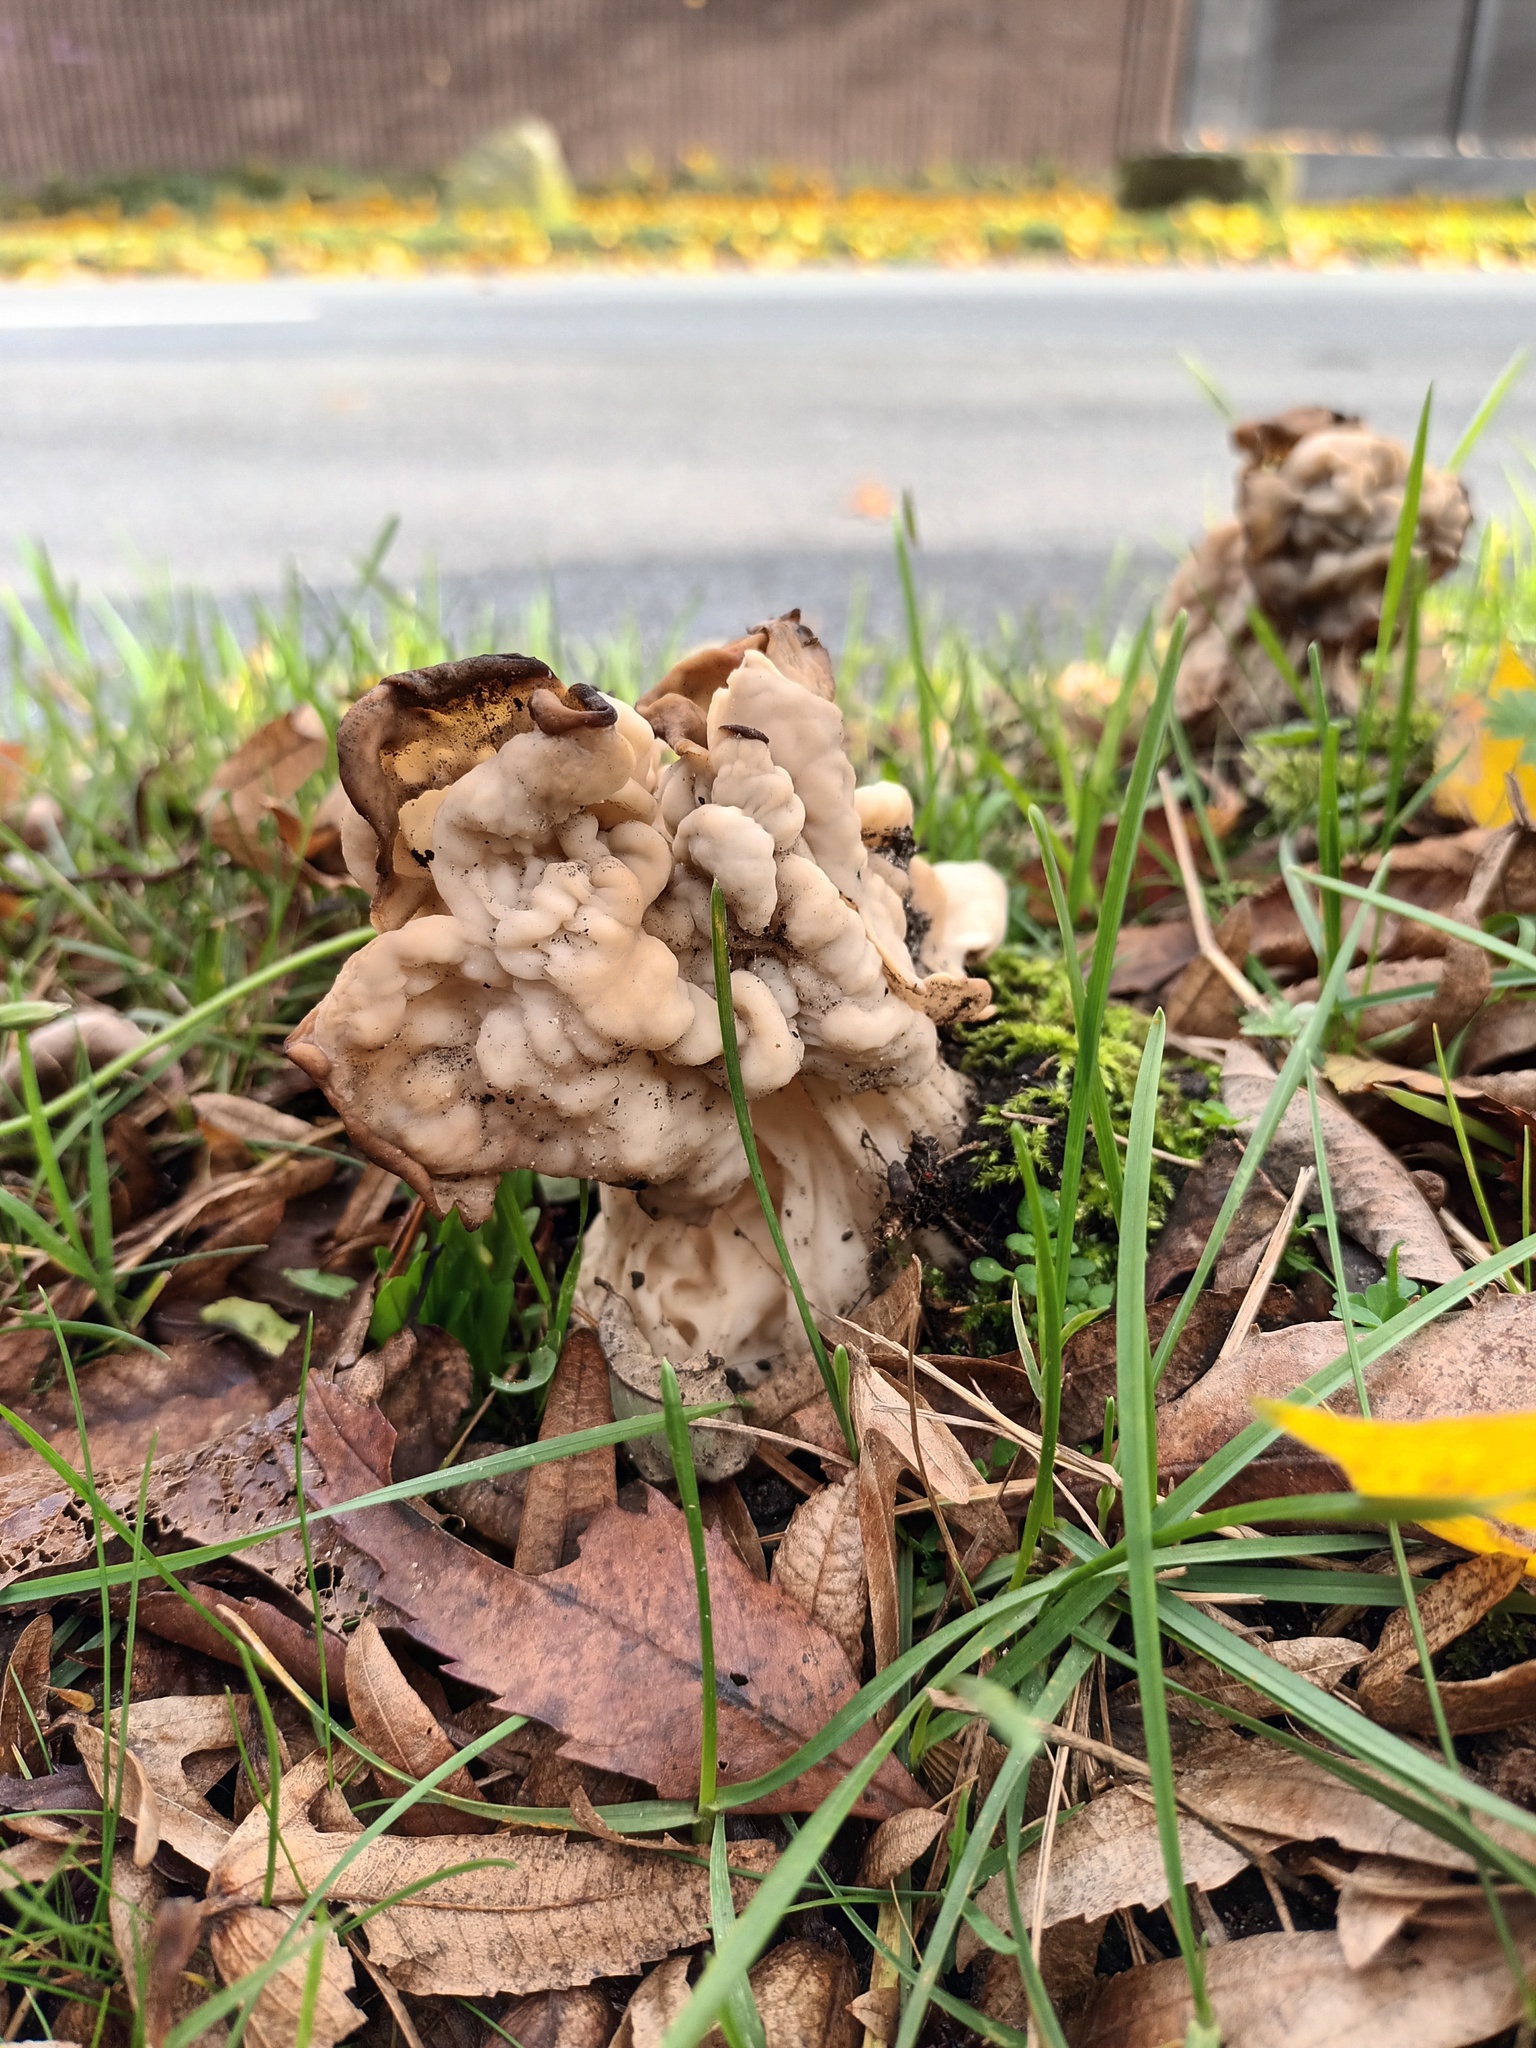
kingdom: Fungi
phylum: Ascomycota
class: Pezizomycetes
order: Pezizales
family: Helvellaceae
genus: Helvella
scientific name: Helvella crispa
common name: White saddle
